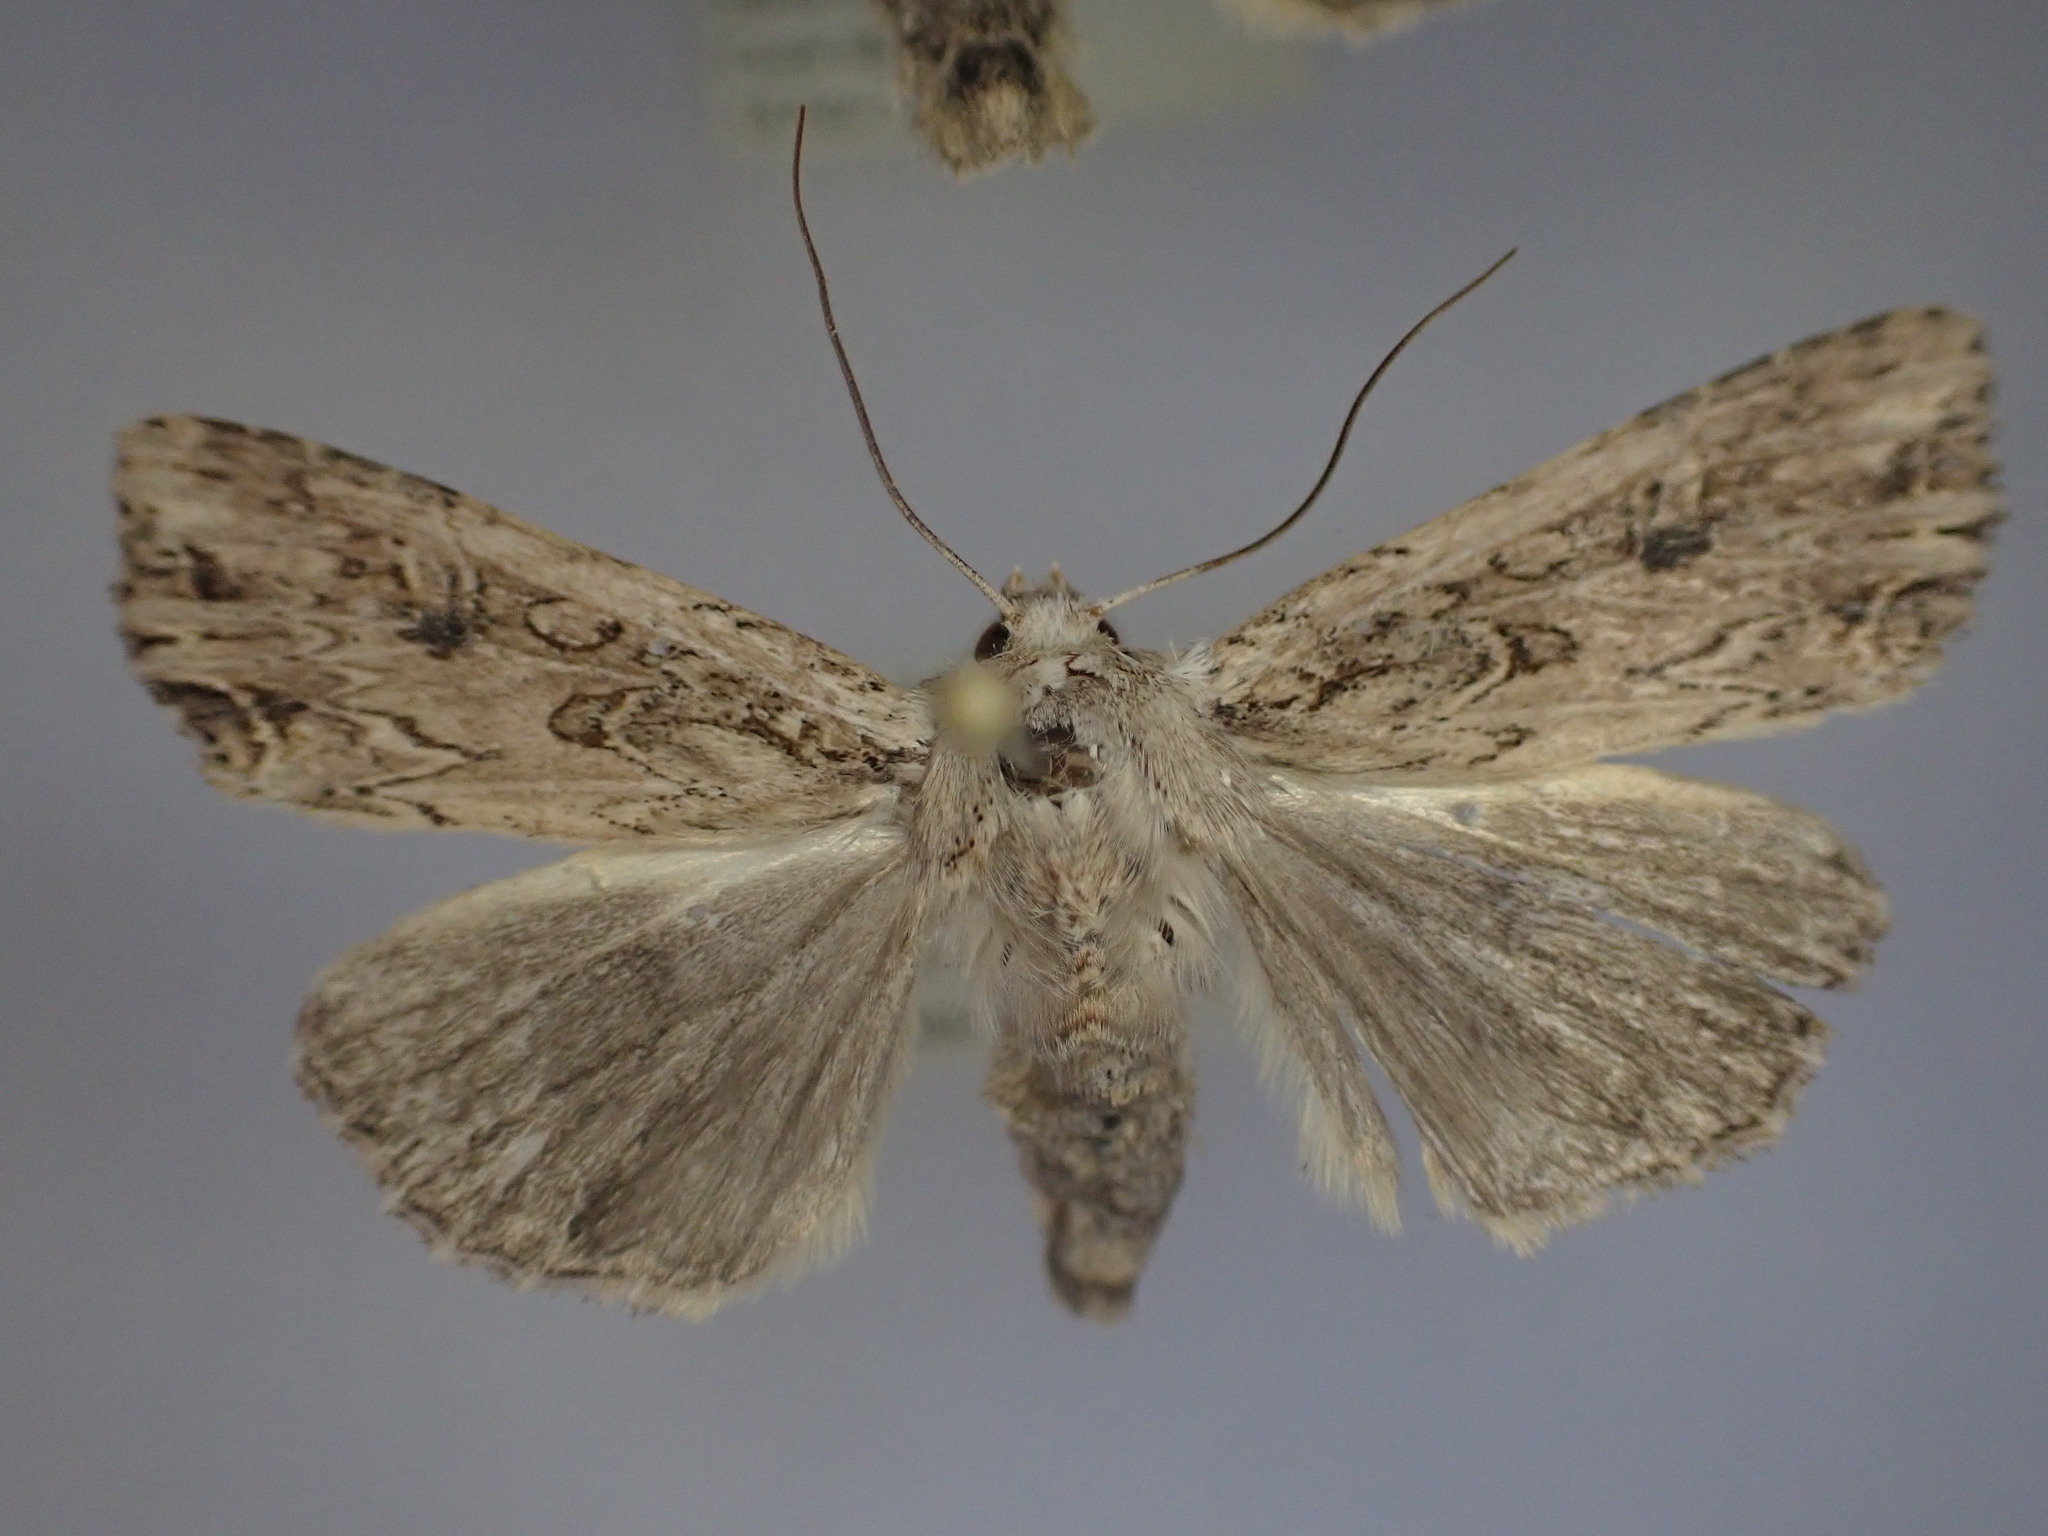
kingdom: Animalia
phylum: Arthropoda
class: Insecta
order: Lepidoptera
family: Noctuidae
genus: Ichneutica
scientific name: Ichneutica lignana
